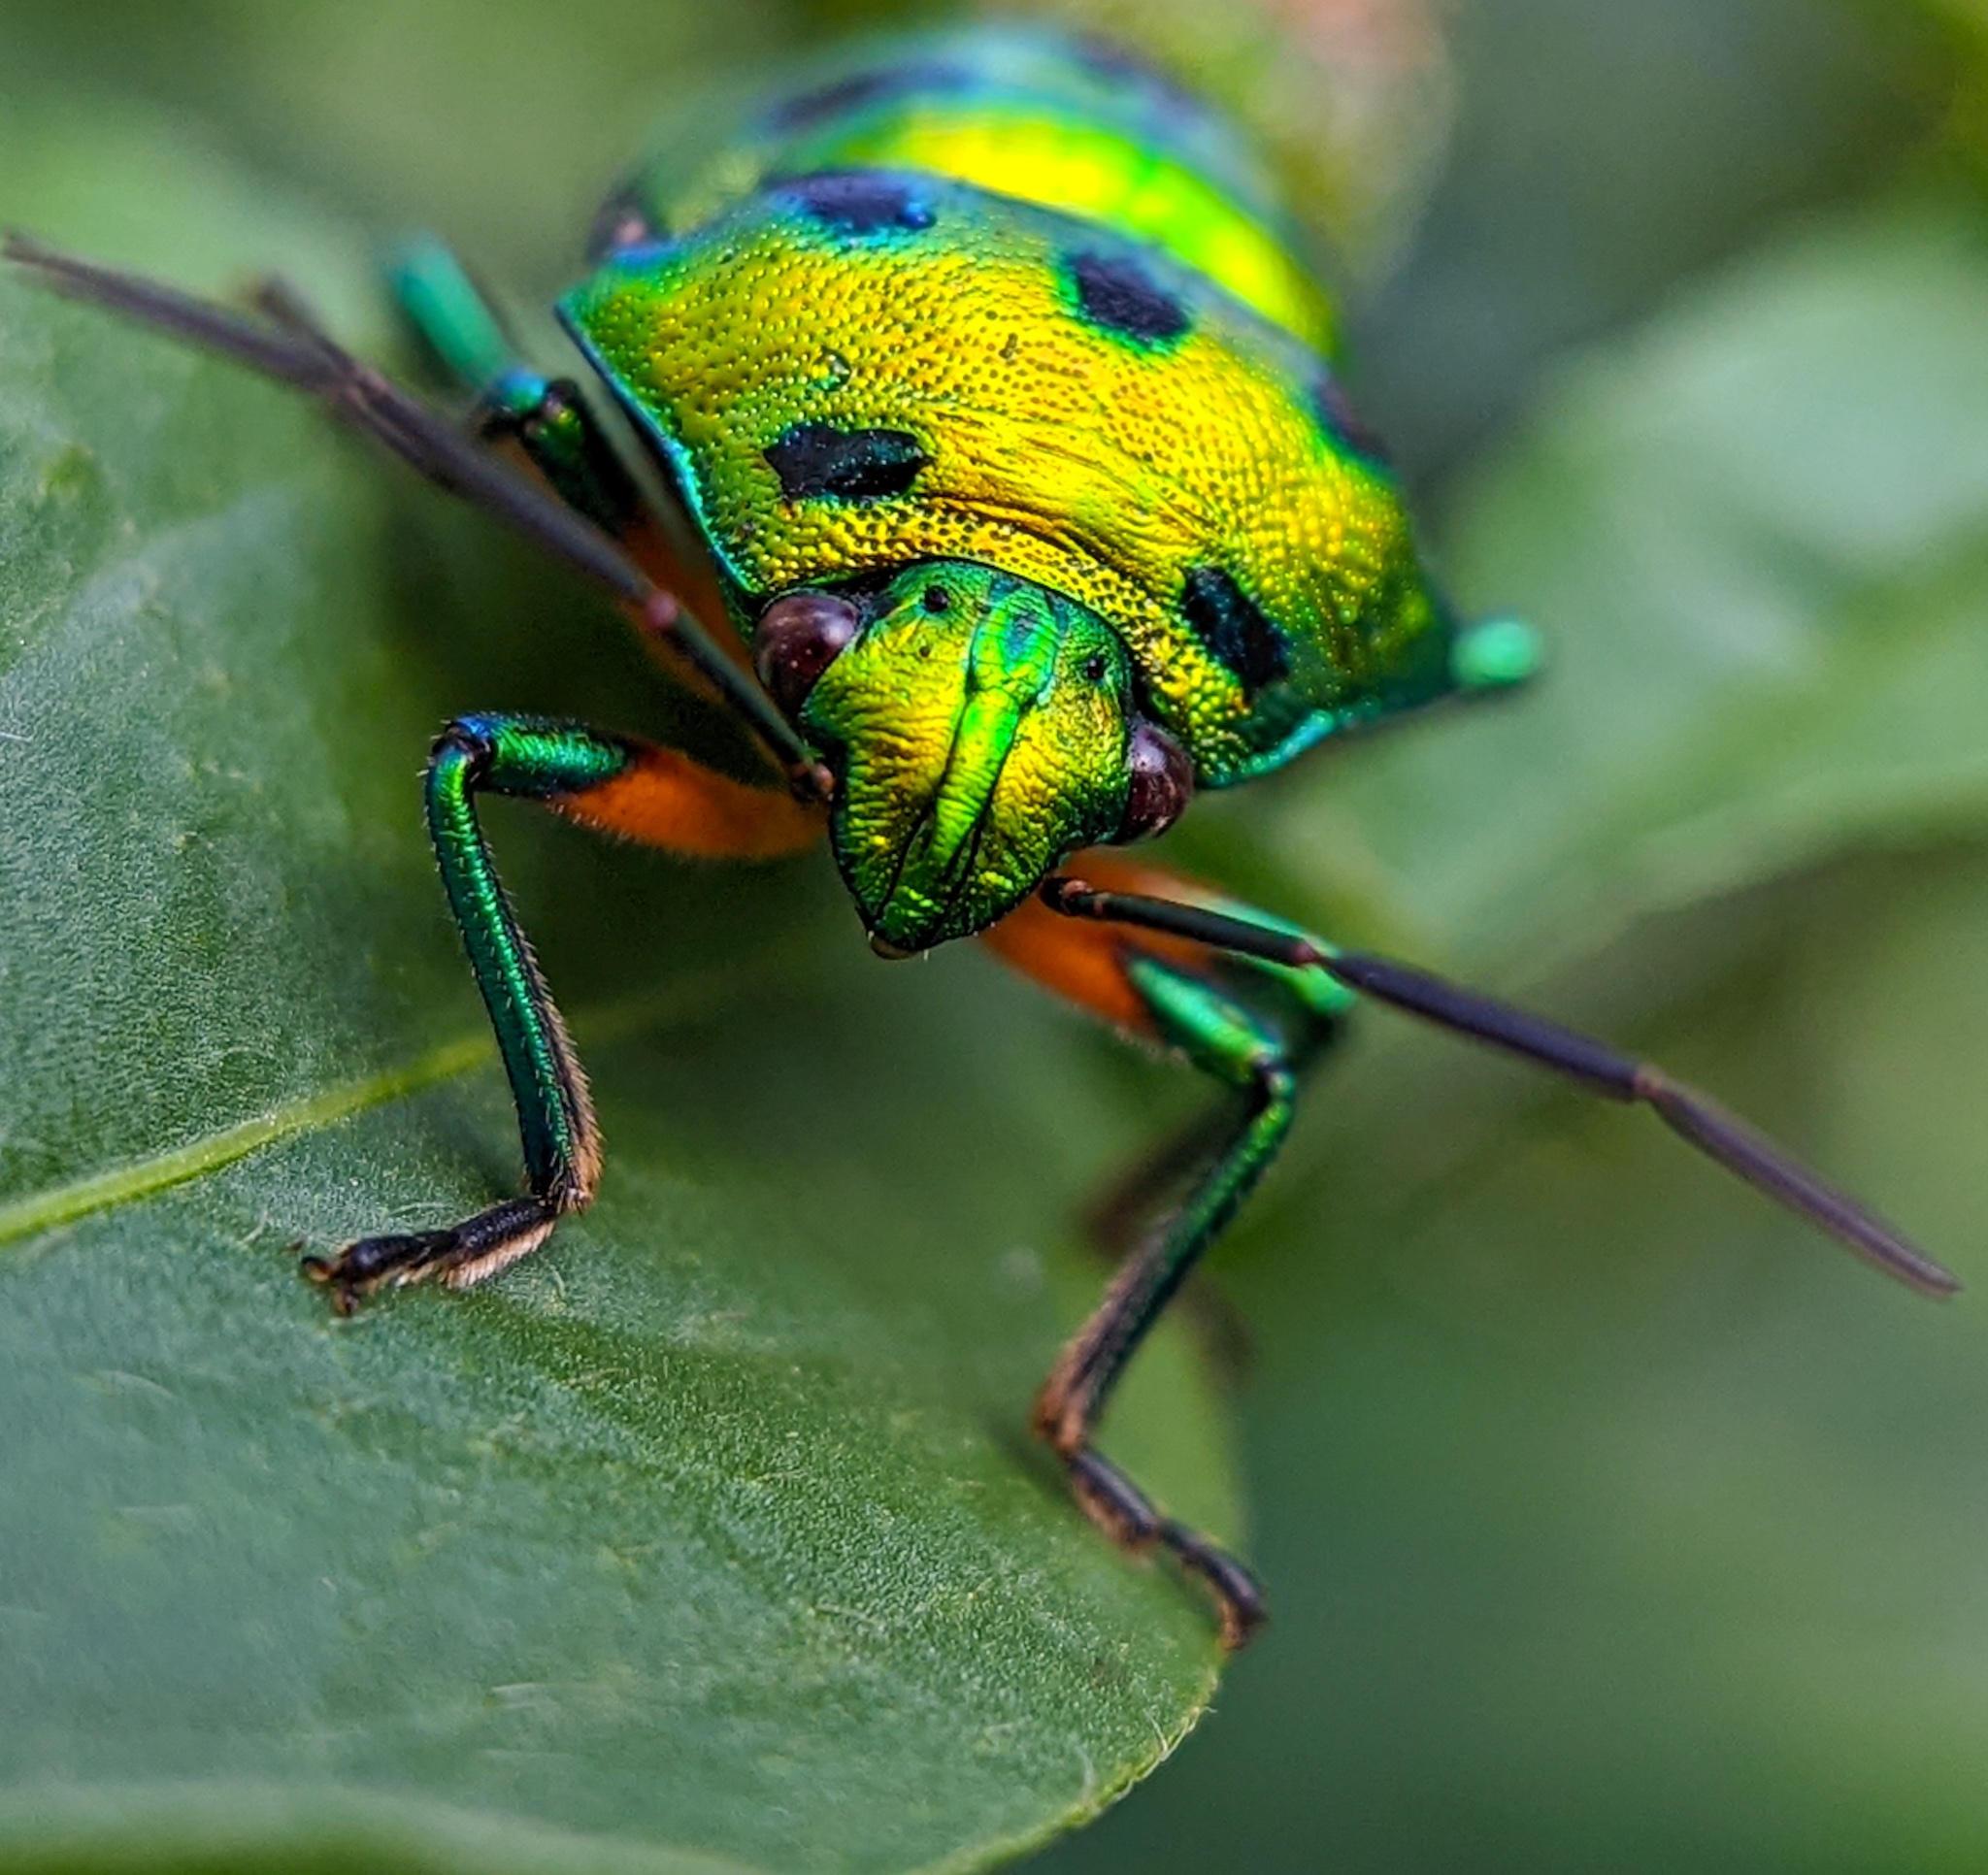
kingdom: Animalia
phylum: Arthropoda
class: Insecta
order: Hemiptera
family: Scutelleridae
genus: Chrysocoris
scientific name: Chrysocoris purpureus
